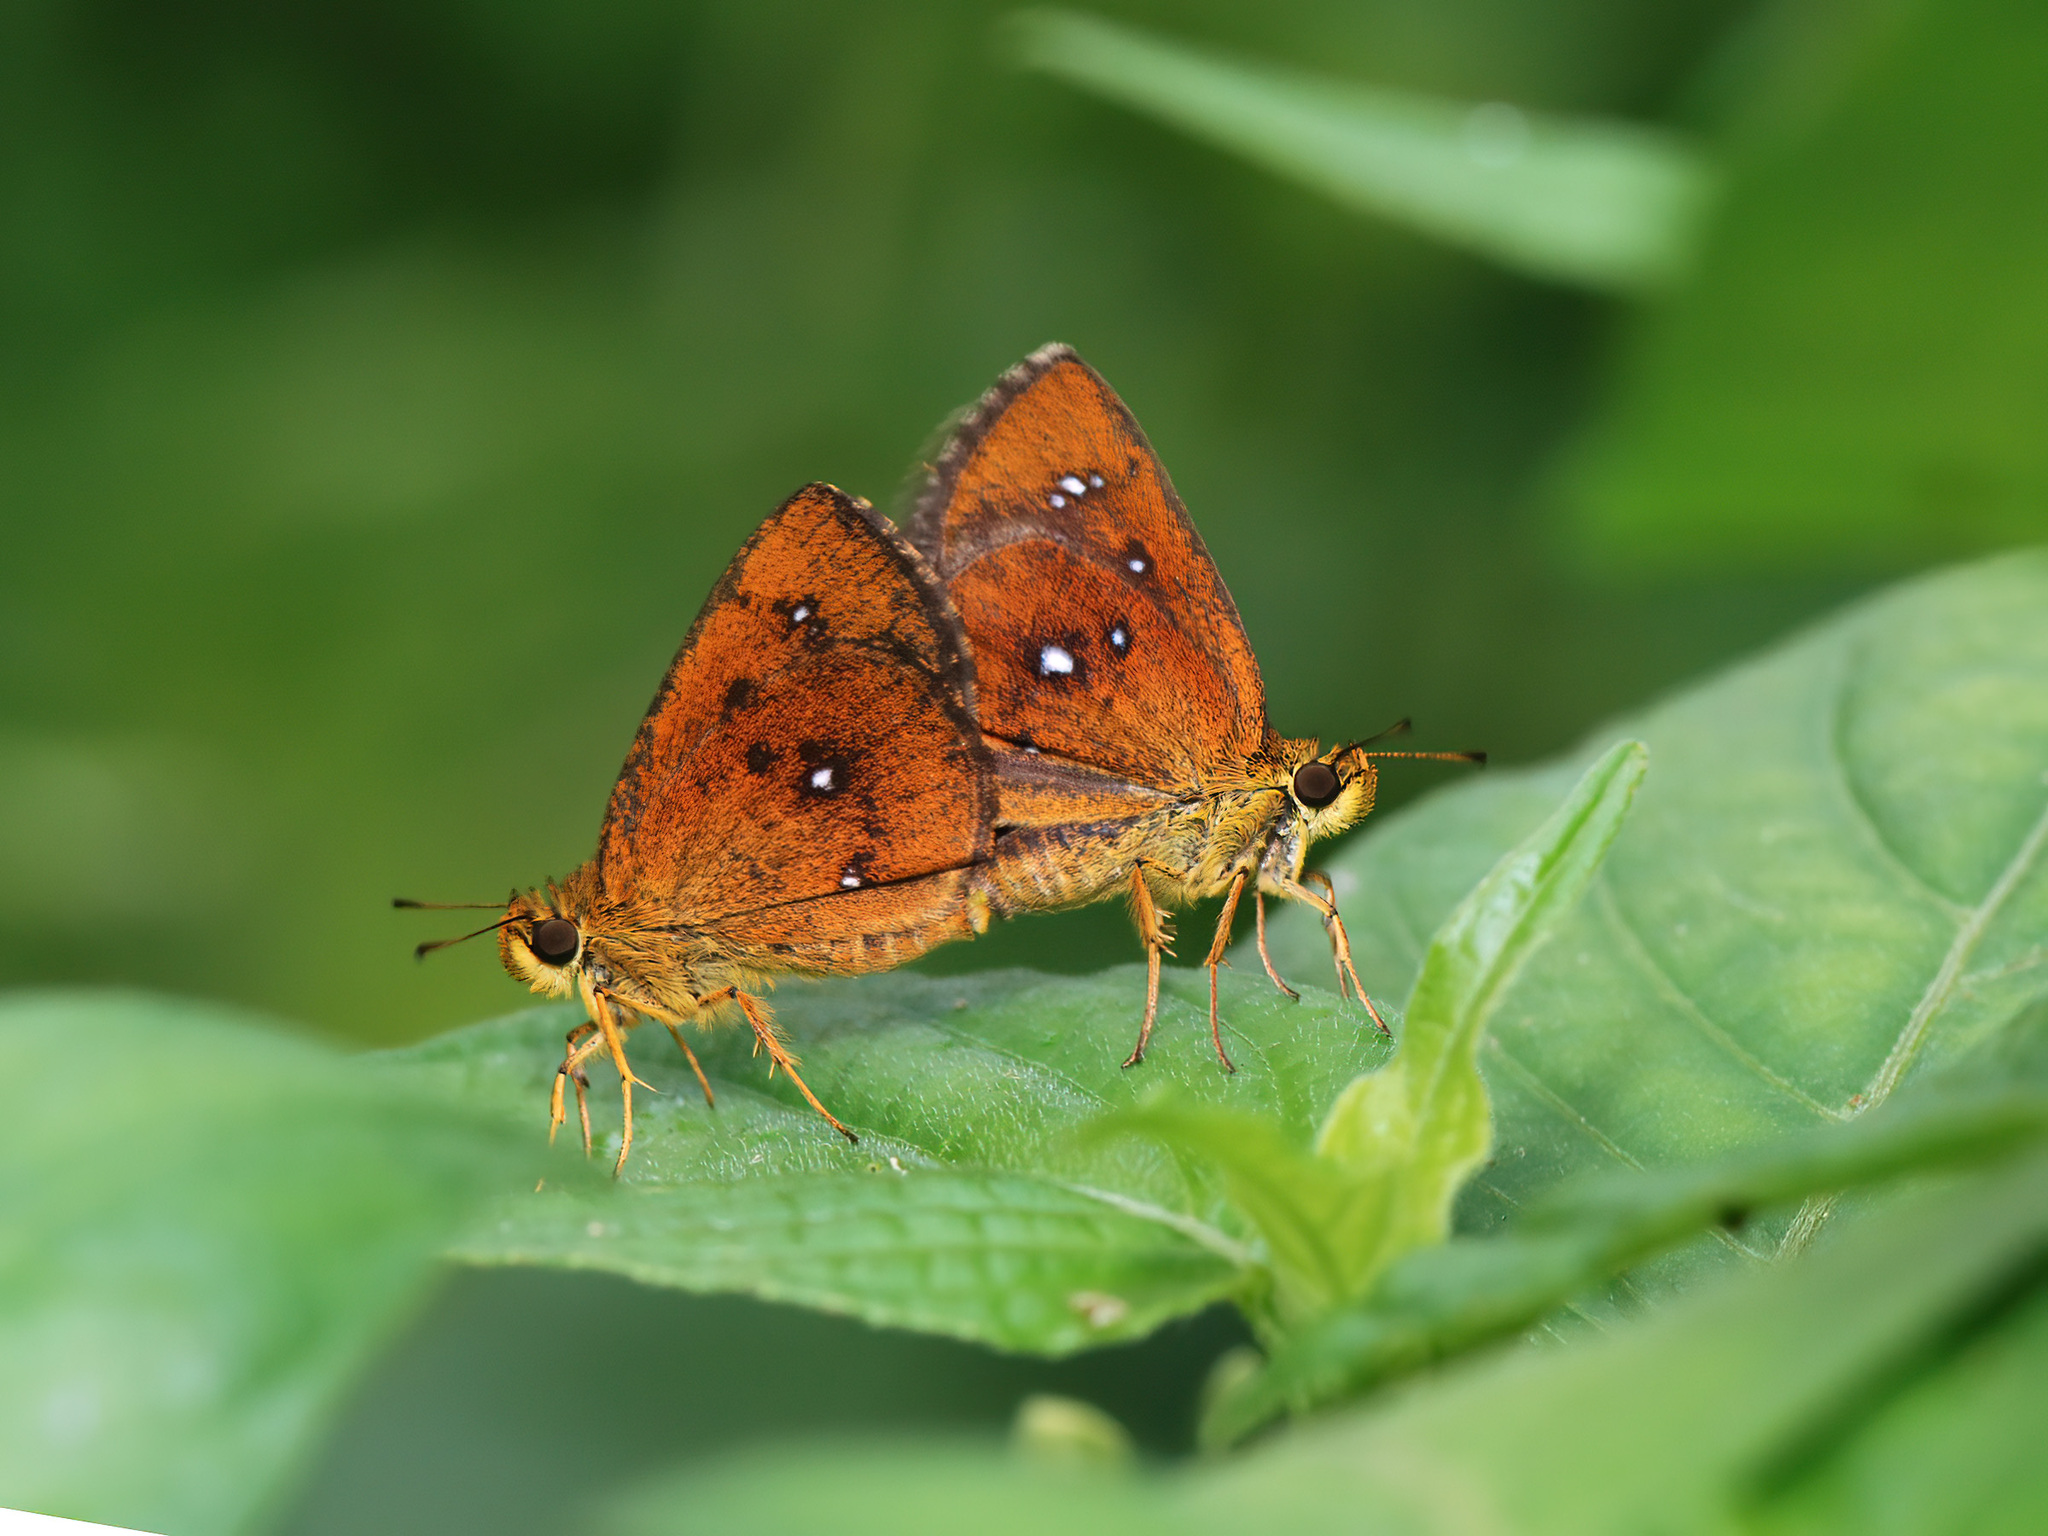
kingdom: Animalia
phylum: Arthropoda
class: Insecta
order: Lepidoptera
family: Hesperiidae
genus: Iambrix
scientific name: Iambrix salsala
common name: Chestnut bob
